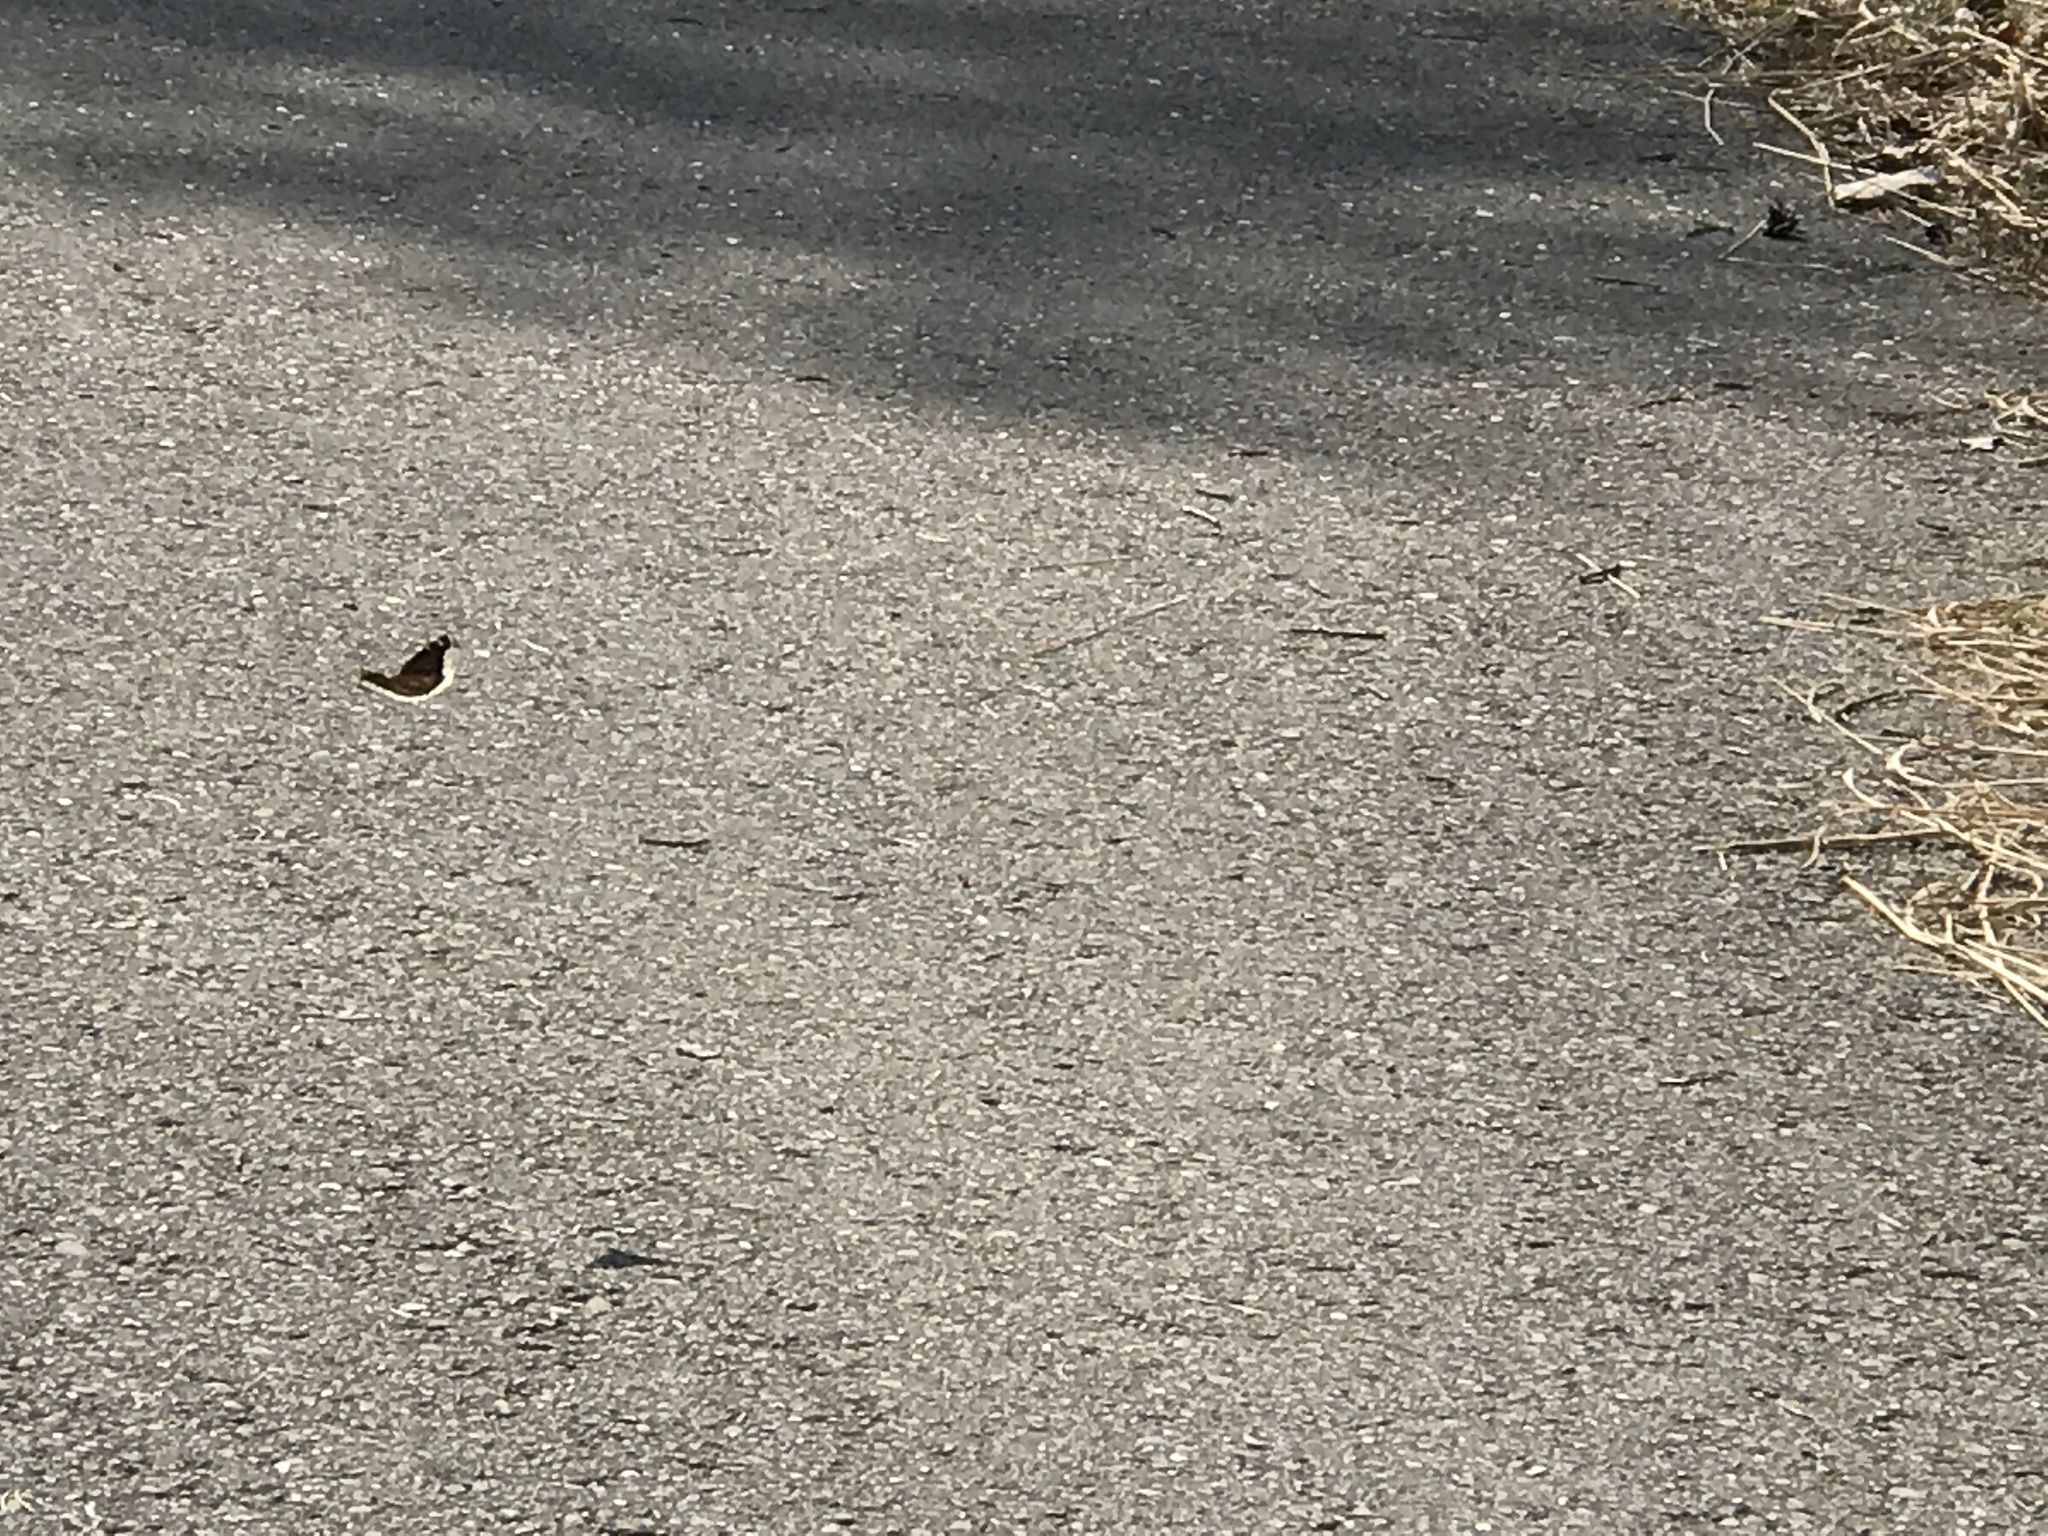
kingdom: Animalia
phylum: Arthropoda
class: Insecta
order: Lepidoptera
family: Nymphalidae
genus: Nymphalis
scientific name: Nymphalis antiopa
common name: Camberwell beauty
